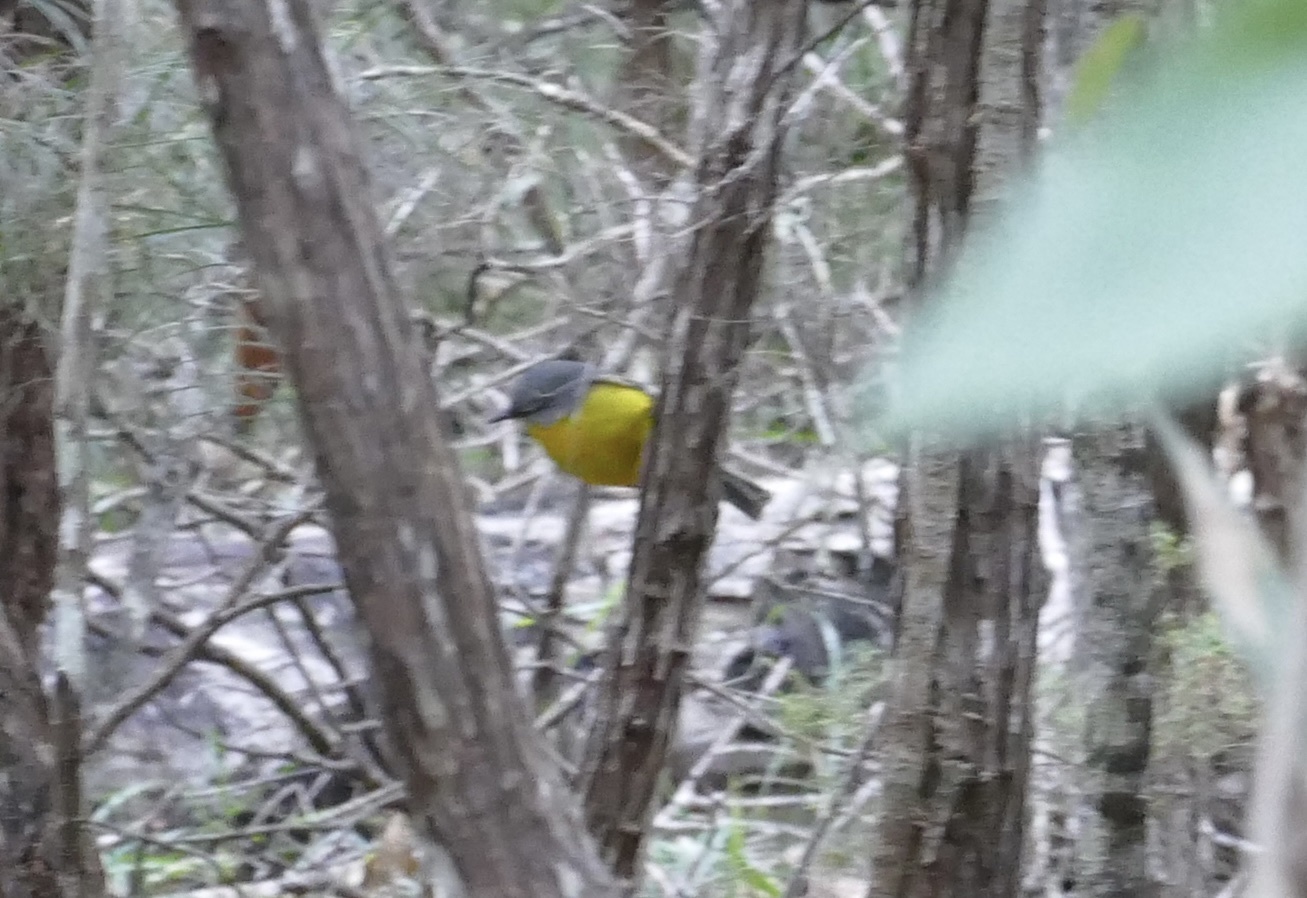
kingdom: Animalia
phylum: Chordata
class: Aves
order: Passeriformes
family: Petroicidae
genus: Eopsaltria
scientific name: Eopsaltria australis
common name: Eastern yellow robin
